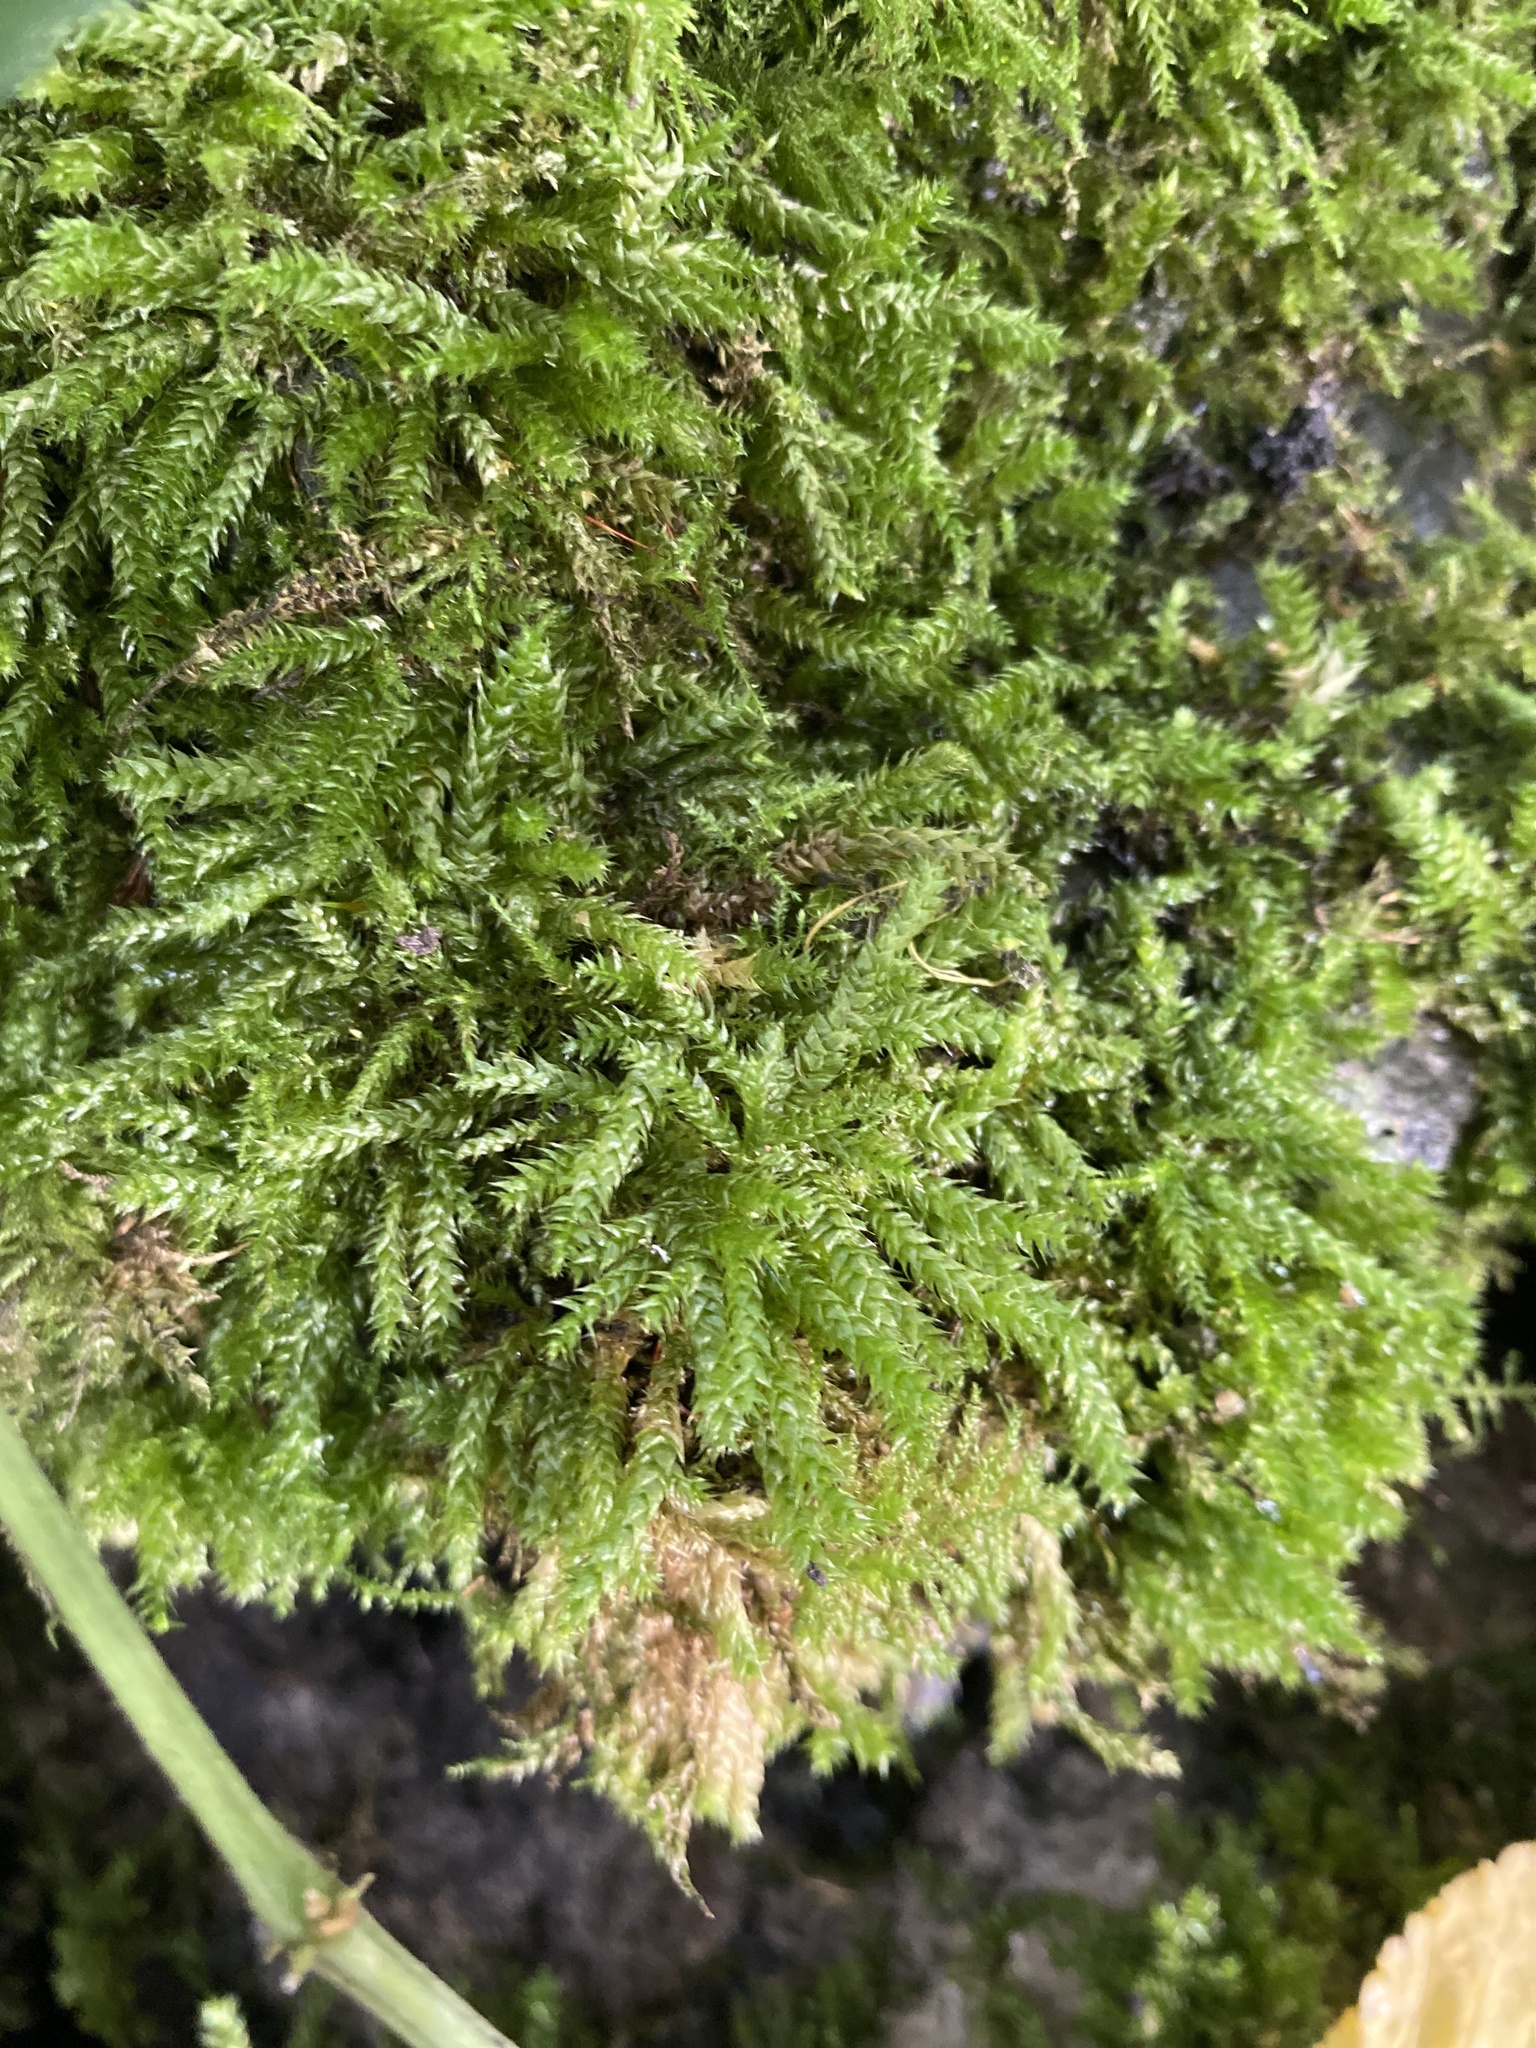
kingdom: Plantae
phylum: Bryophyta
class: Bryopsida
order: Hypnales
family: Hypnaceae
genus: Hypnum
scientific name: Hypnum cupressiforme
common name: Cypress-leaved plait-moss
